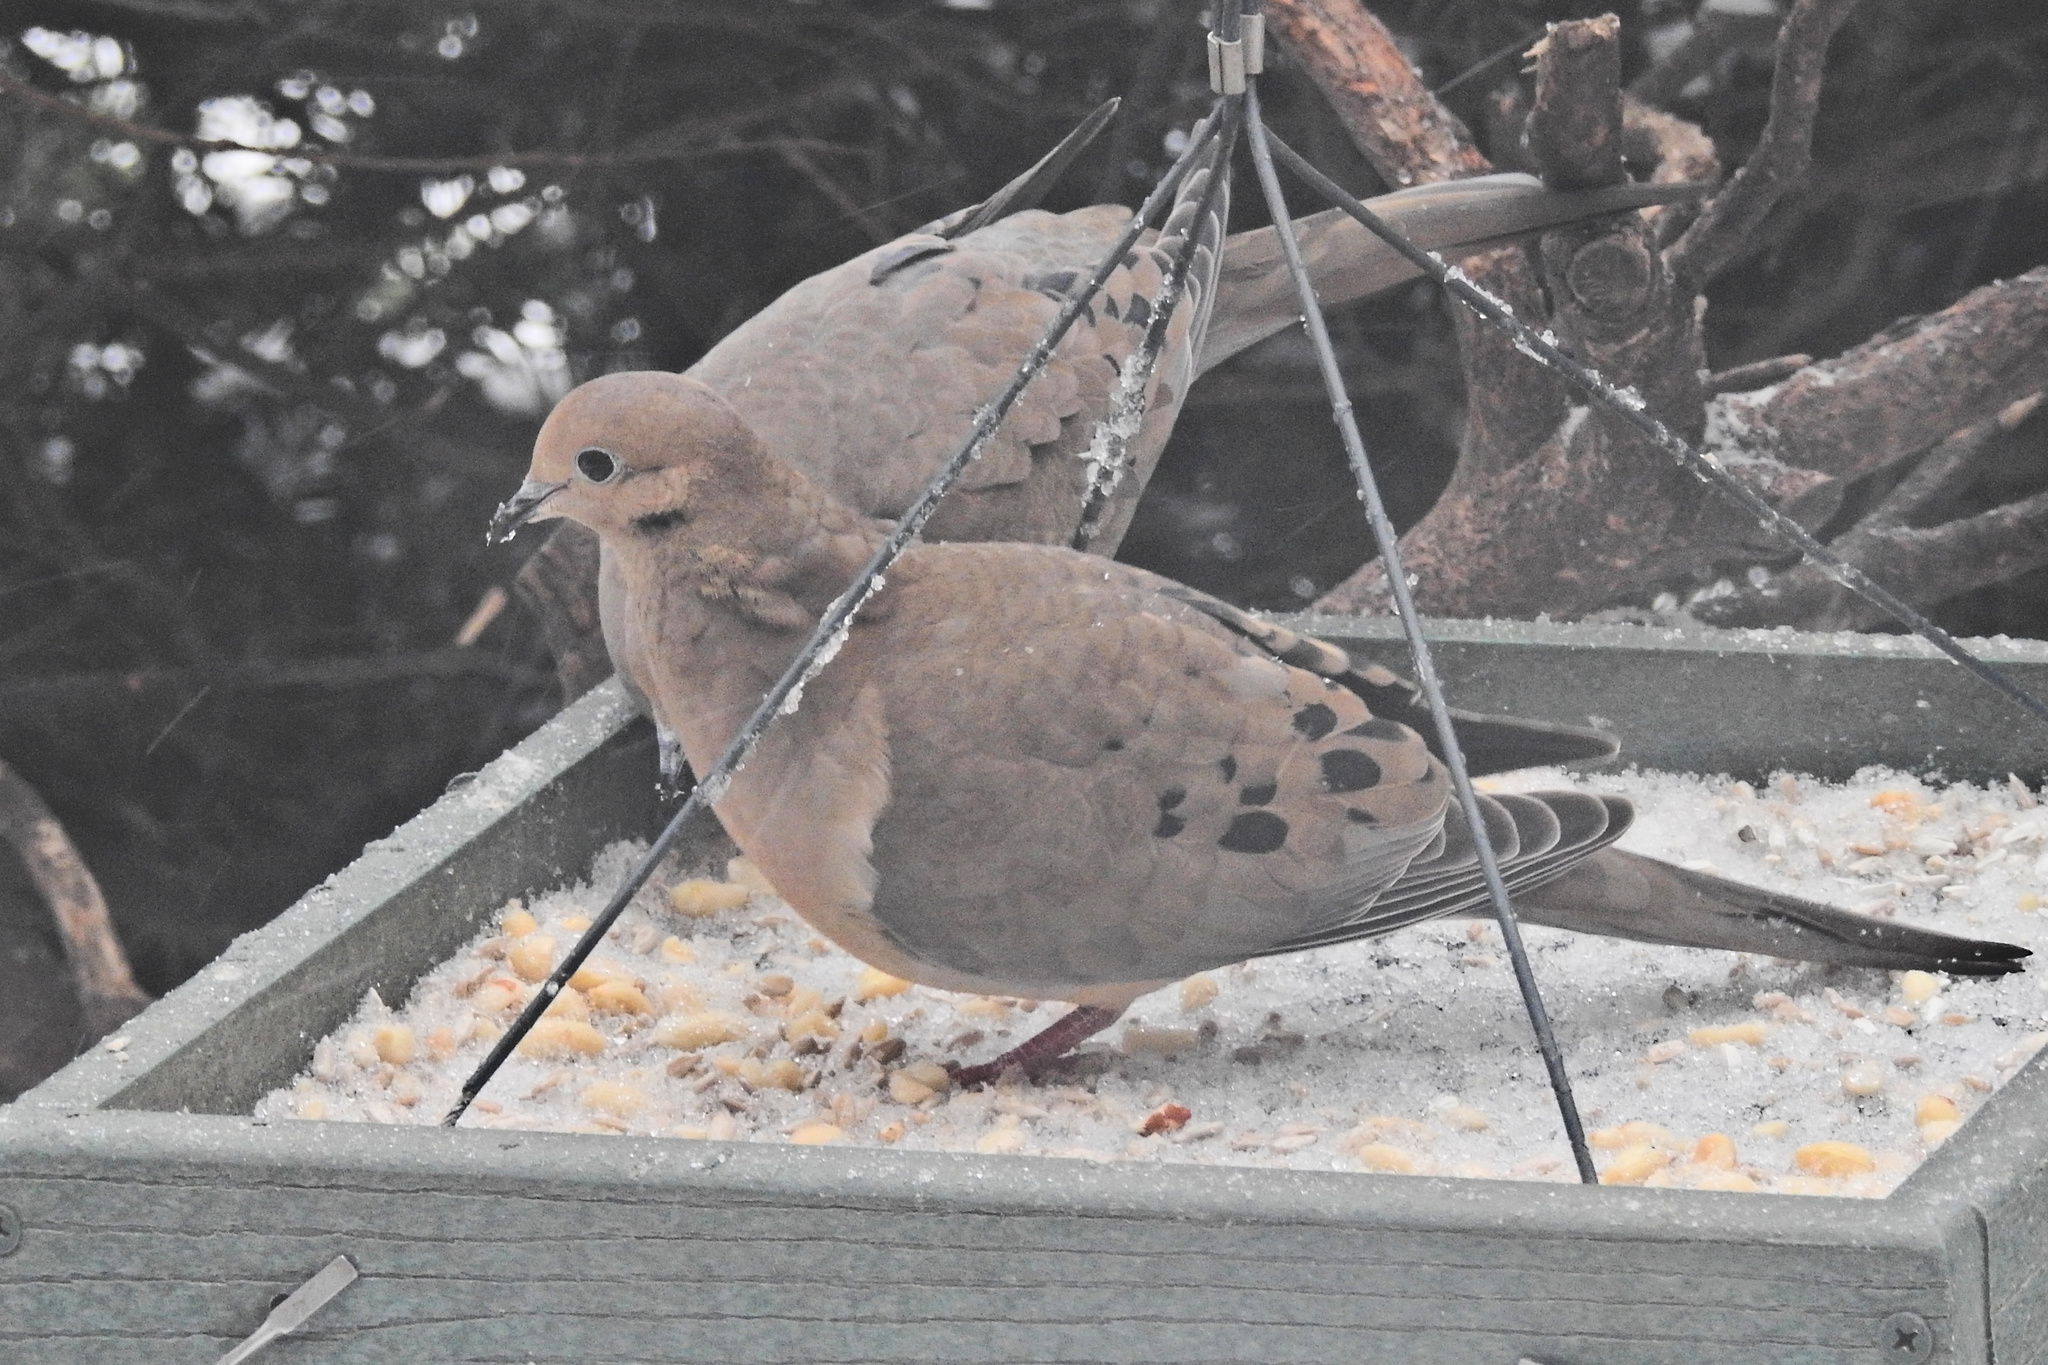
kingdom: Animalia
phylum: Chordata
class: Aves
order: Columbiformes
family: Columbidae
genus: Zenaida
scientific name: Zenaida macroura
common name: Mourning dove
